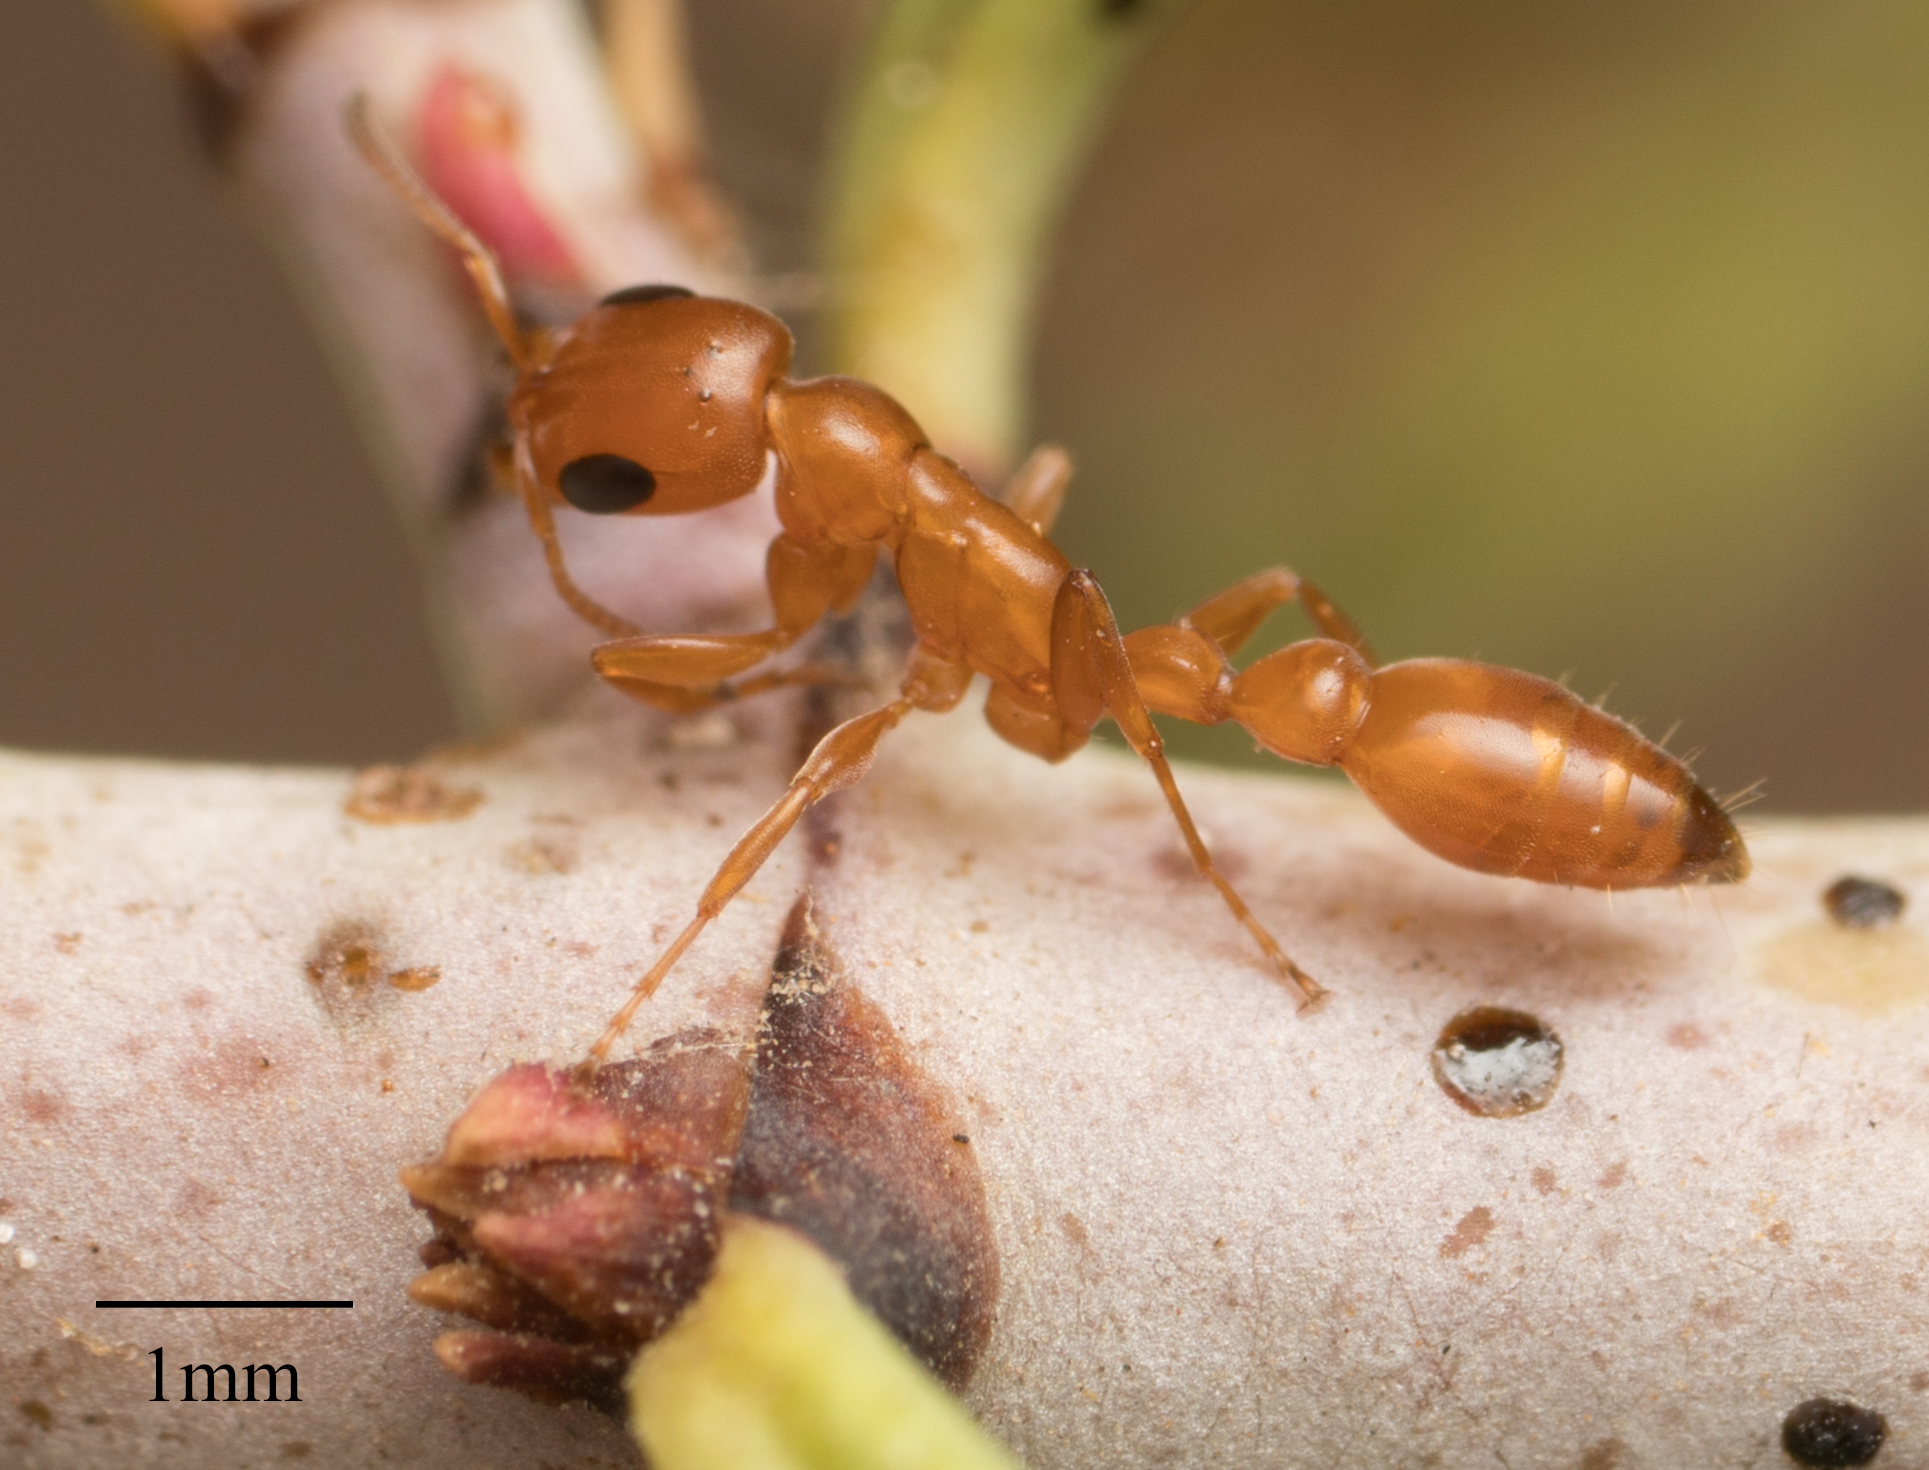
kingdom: Animalia
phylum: Arthropoda
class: Insecta
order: Hymenoptera
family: Formicidae
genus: Pseudomyrmex
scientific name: Pseudomyrmex apache
